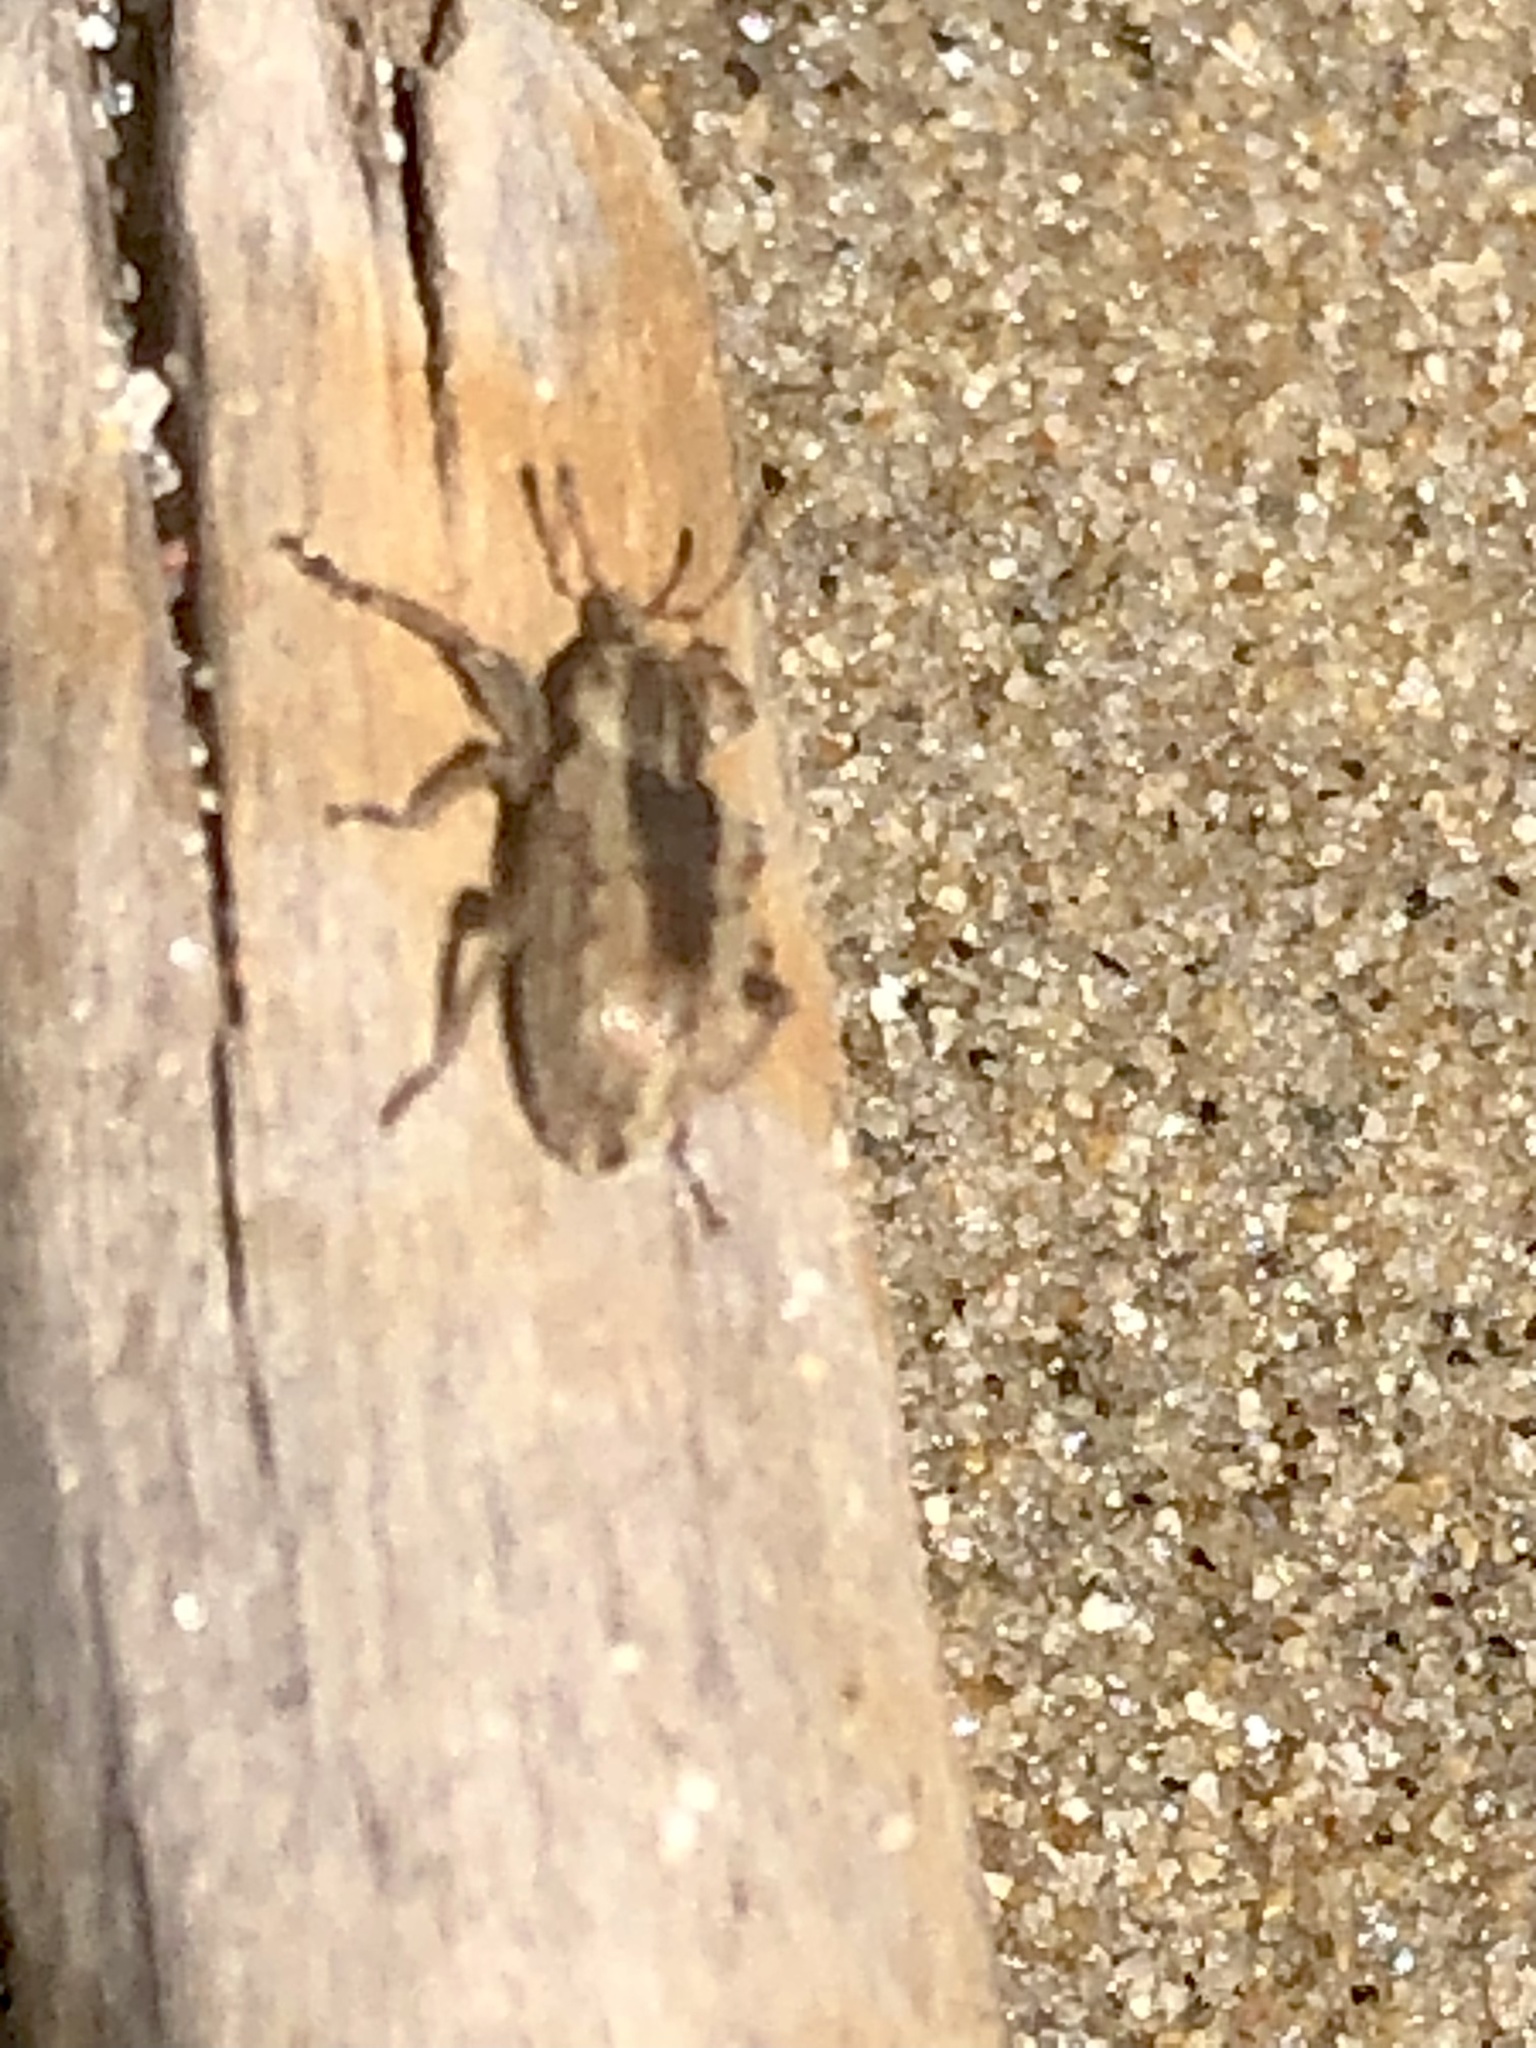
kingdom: Animalia
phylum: Arthropoda
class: Insecta
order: Coleoptera
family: Curculionidae
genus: Hypera
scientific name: Hypera postica
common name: Weevil
